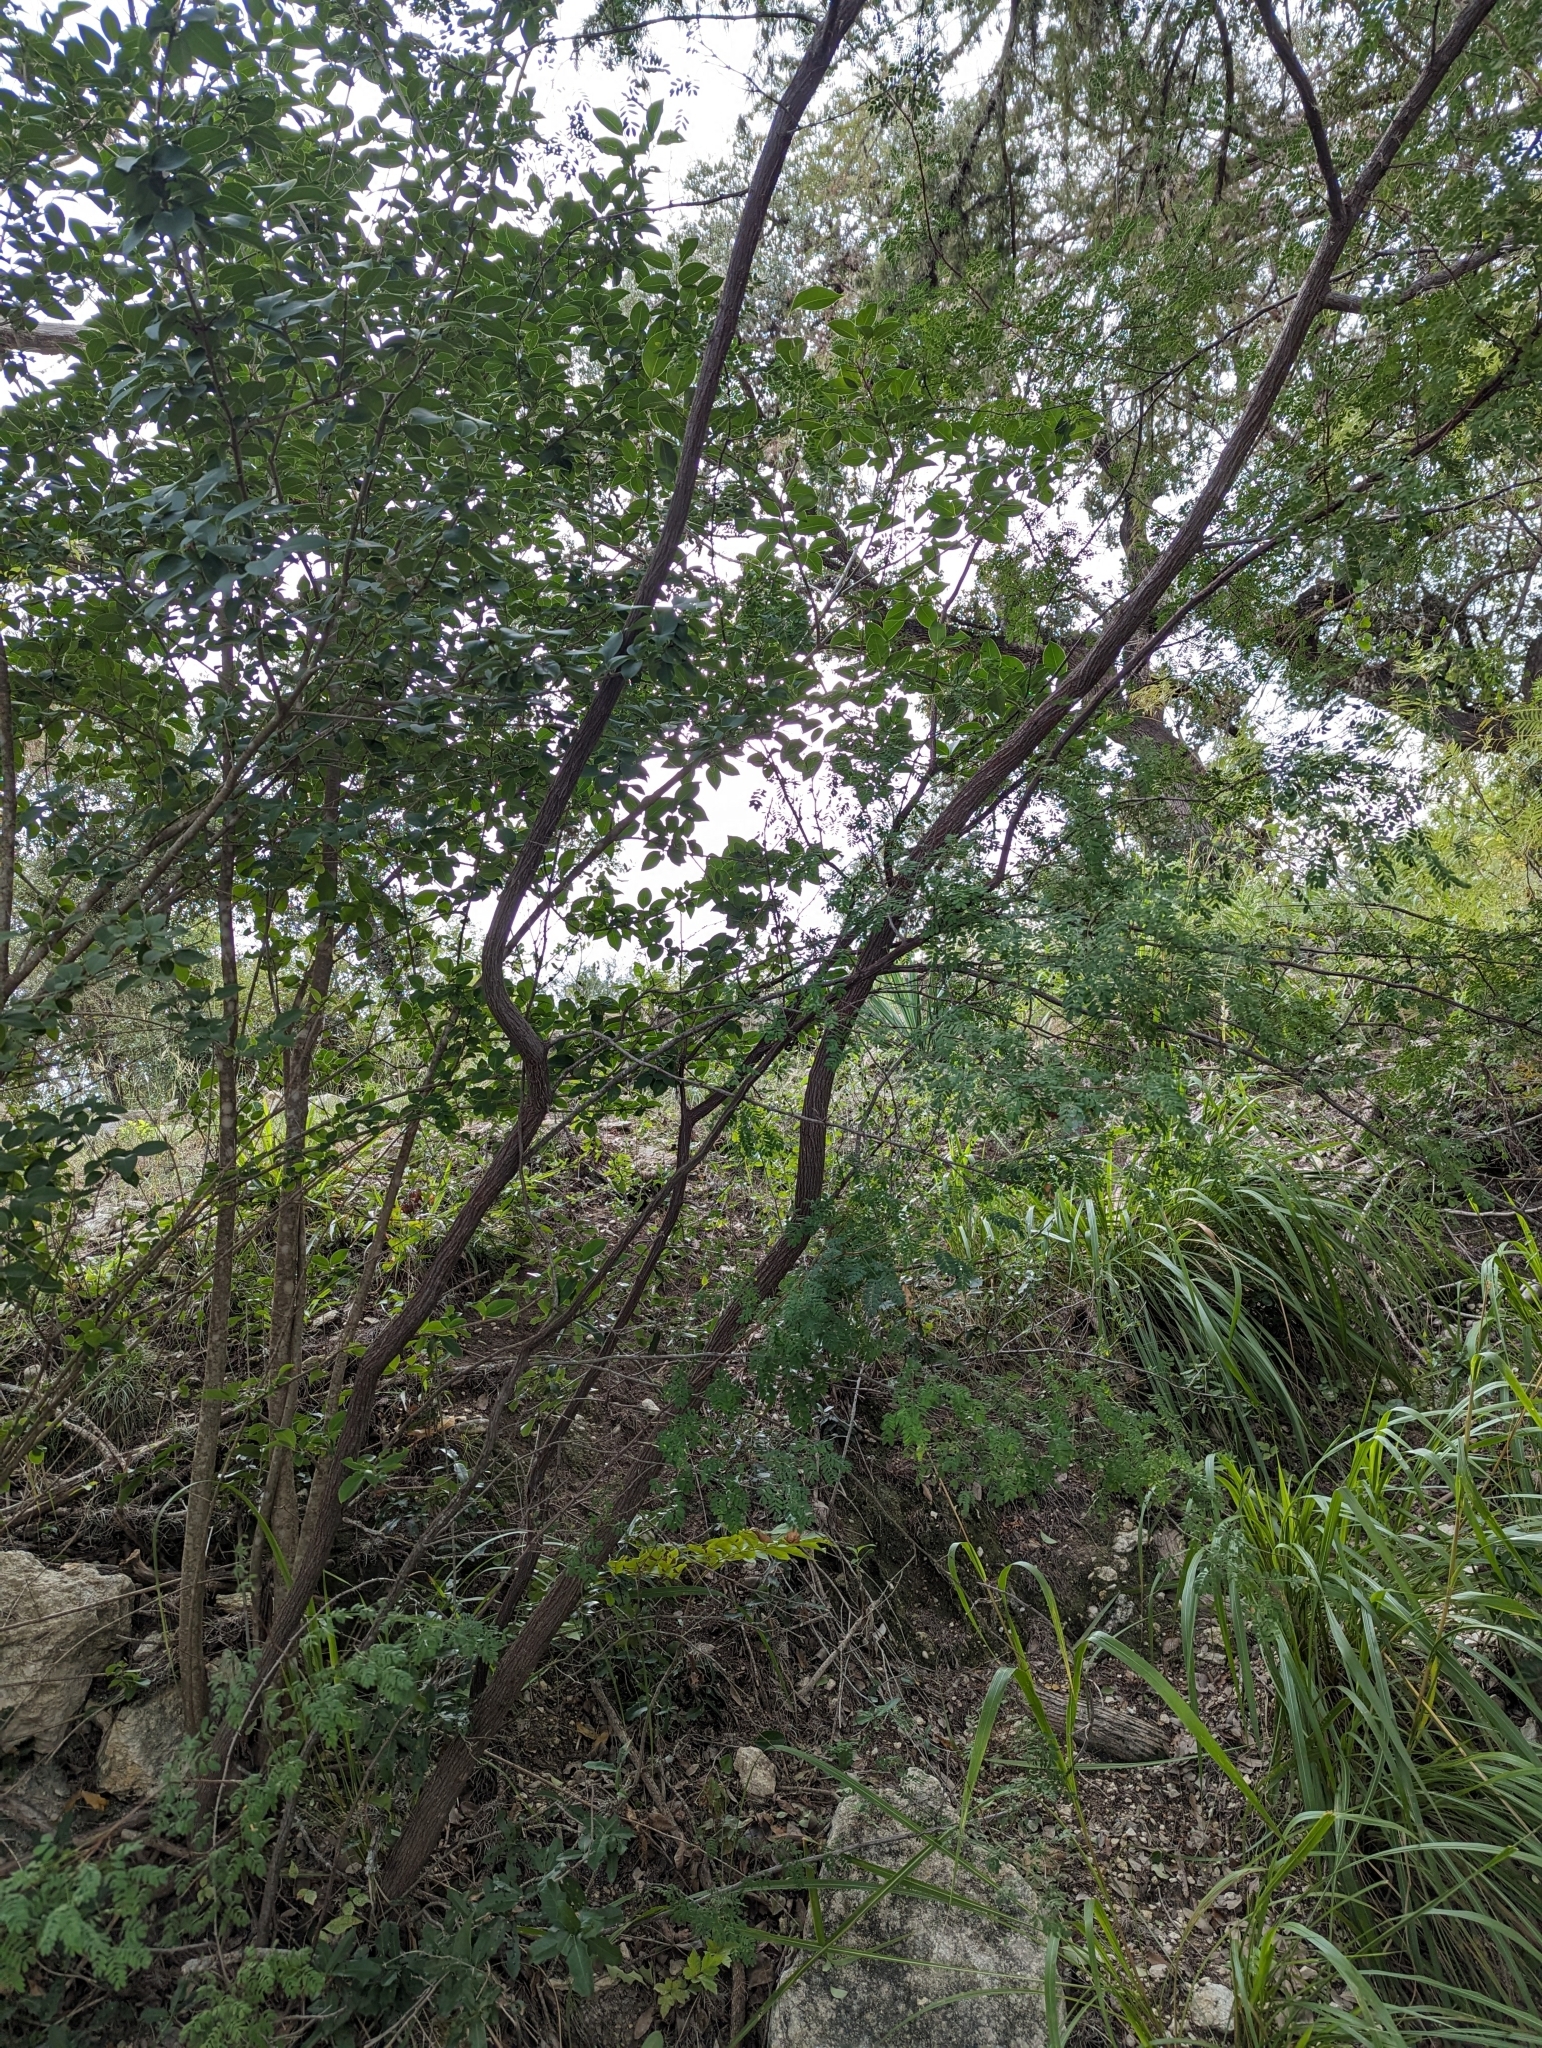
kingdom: Plantae
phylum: Tracheophyta
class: Magnoliopsida
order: Fabales
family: Fabaceae
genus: Senegalia
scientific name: Senegalia roemeriana
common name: Roemer's acacia
